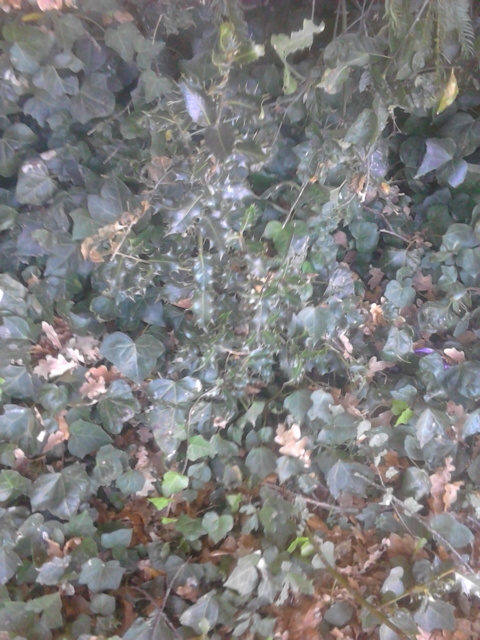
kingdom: Plantae
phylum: Tracheophyta
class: Magnoliopsida
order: Aquifoliales
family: Aquifoliaceae
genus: Ilex
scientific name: Ilex aquifolium
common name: English holly
